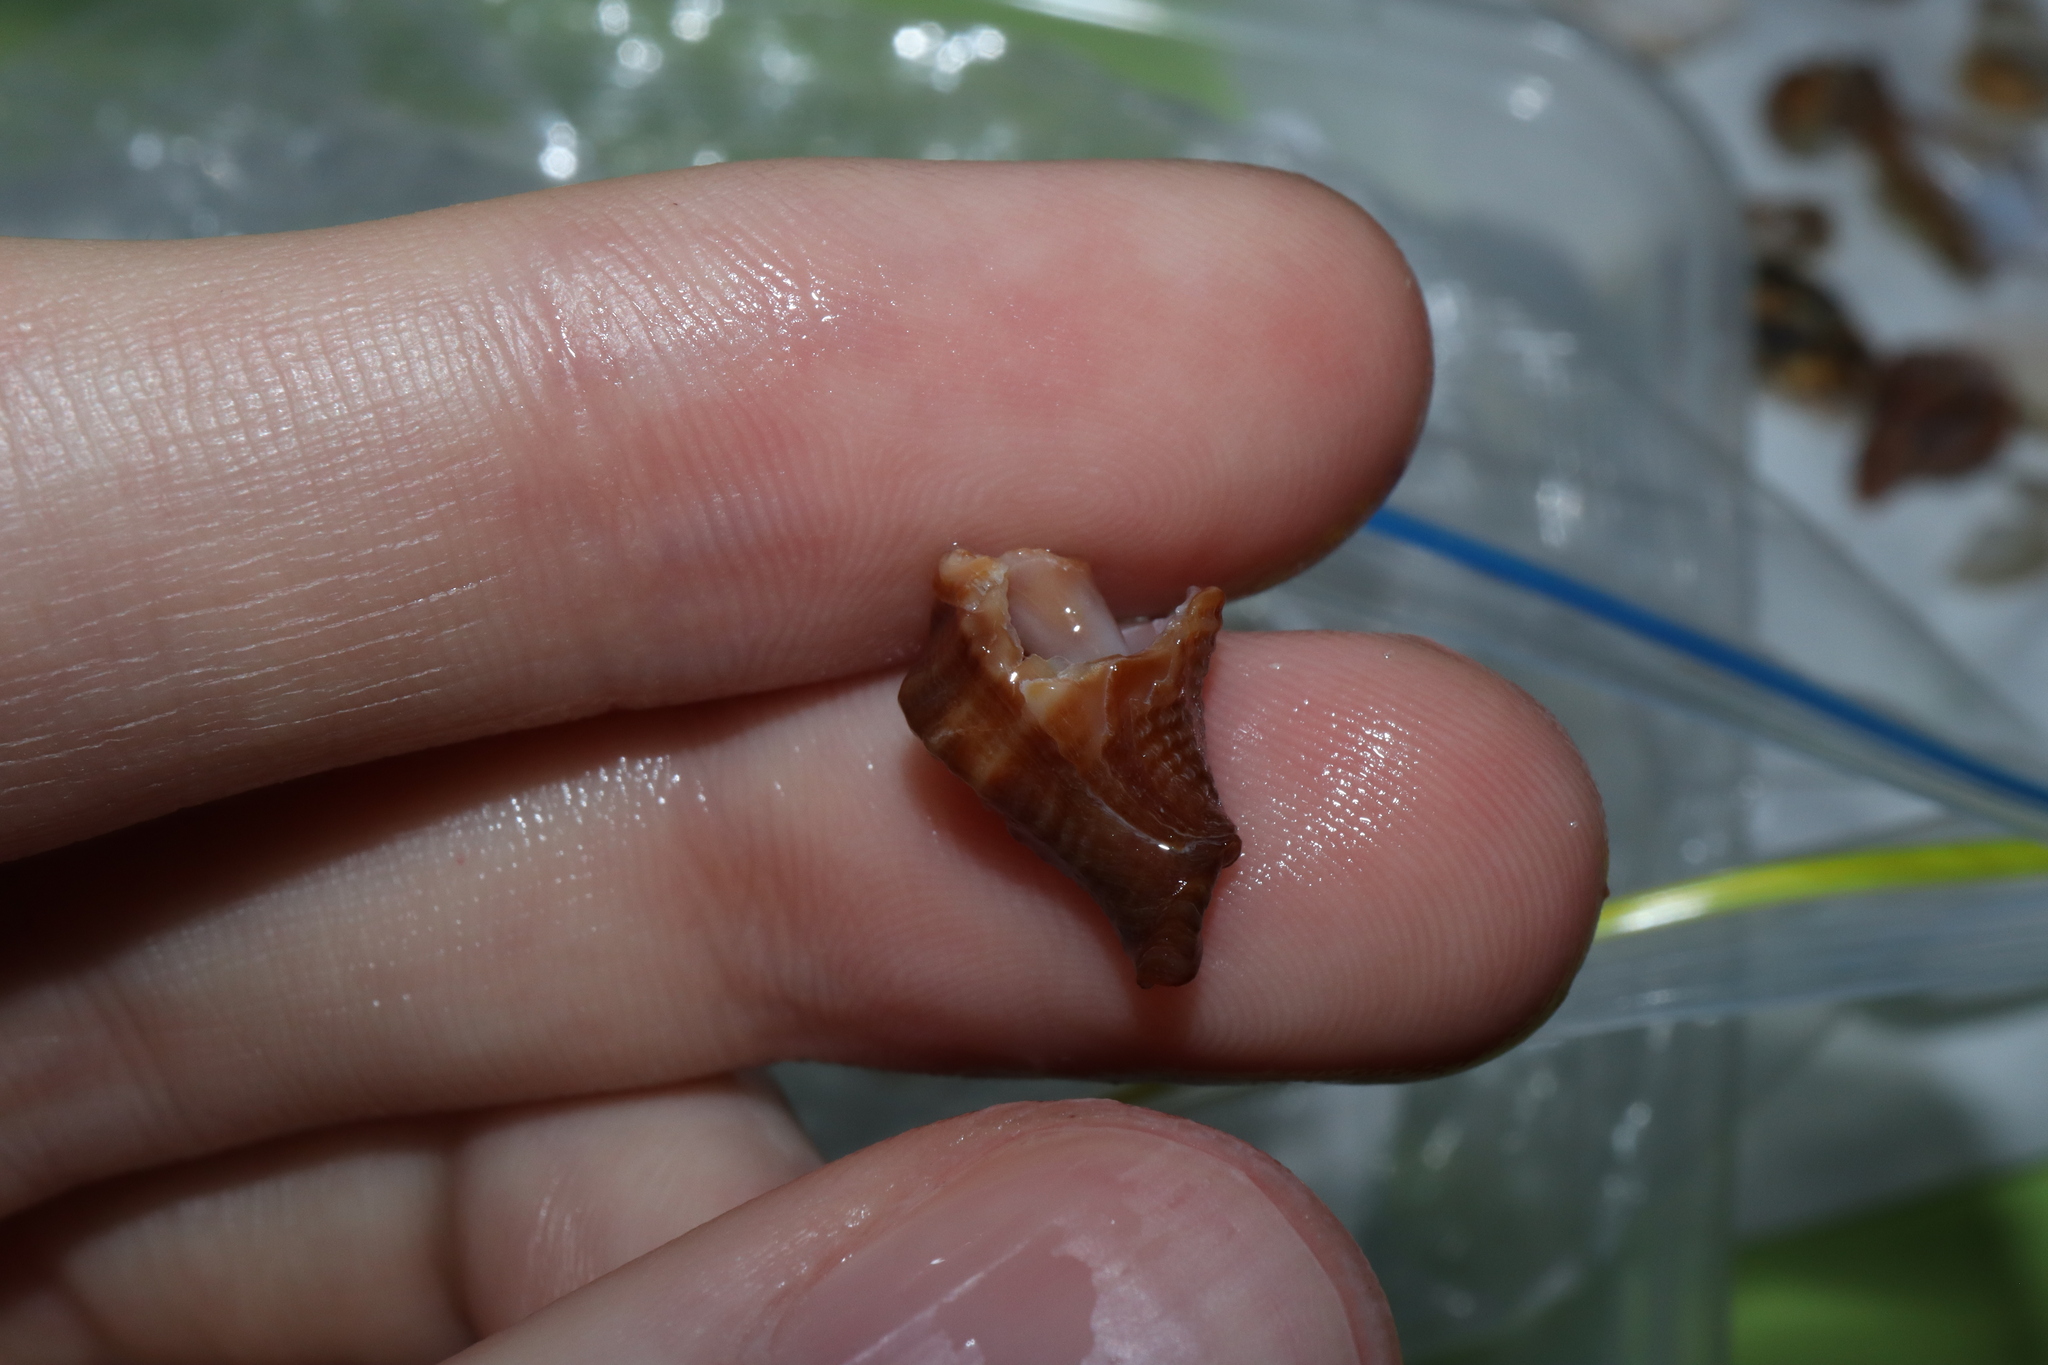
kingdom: Animalia
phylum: Mollusca
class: Gastropoda
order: Neogastropoda
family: Muricidae
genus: Bedeva
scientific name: Bedeva paivae
